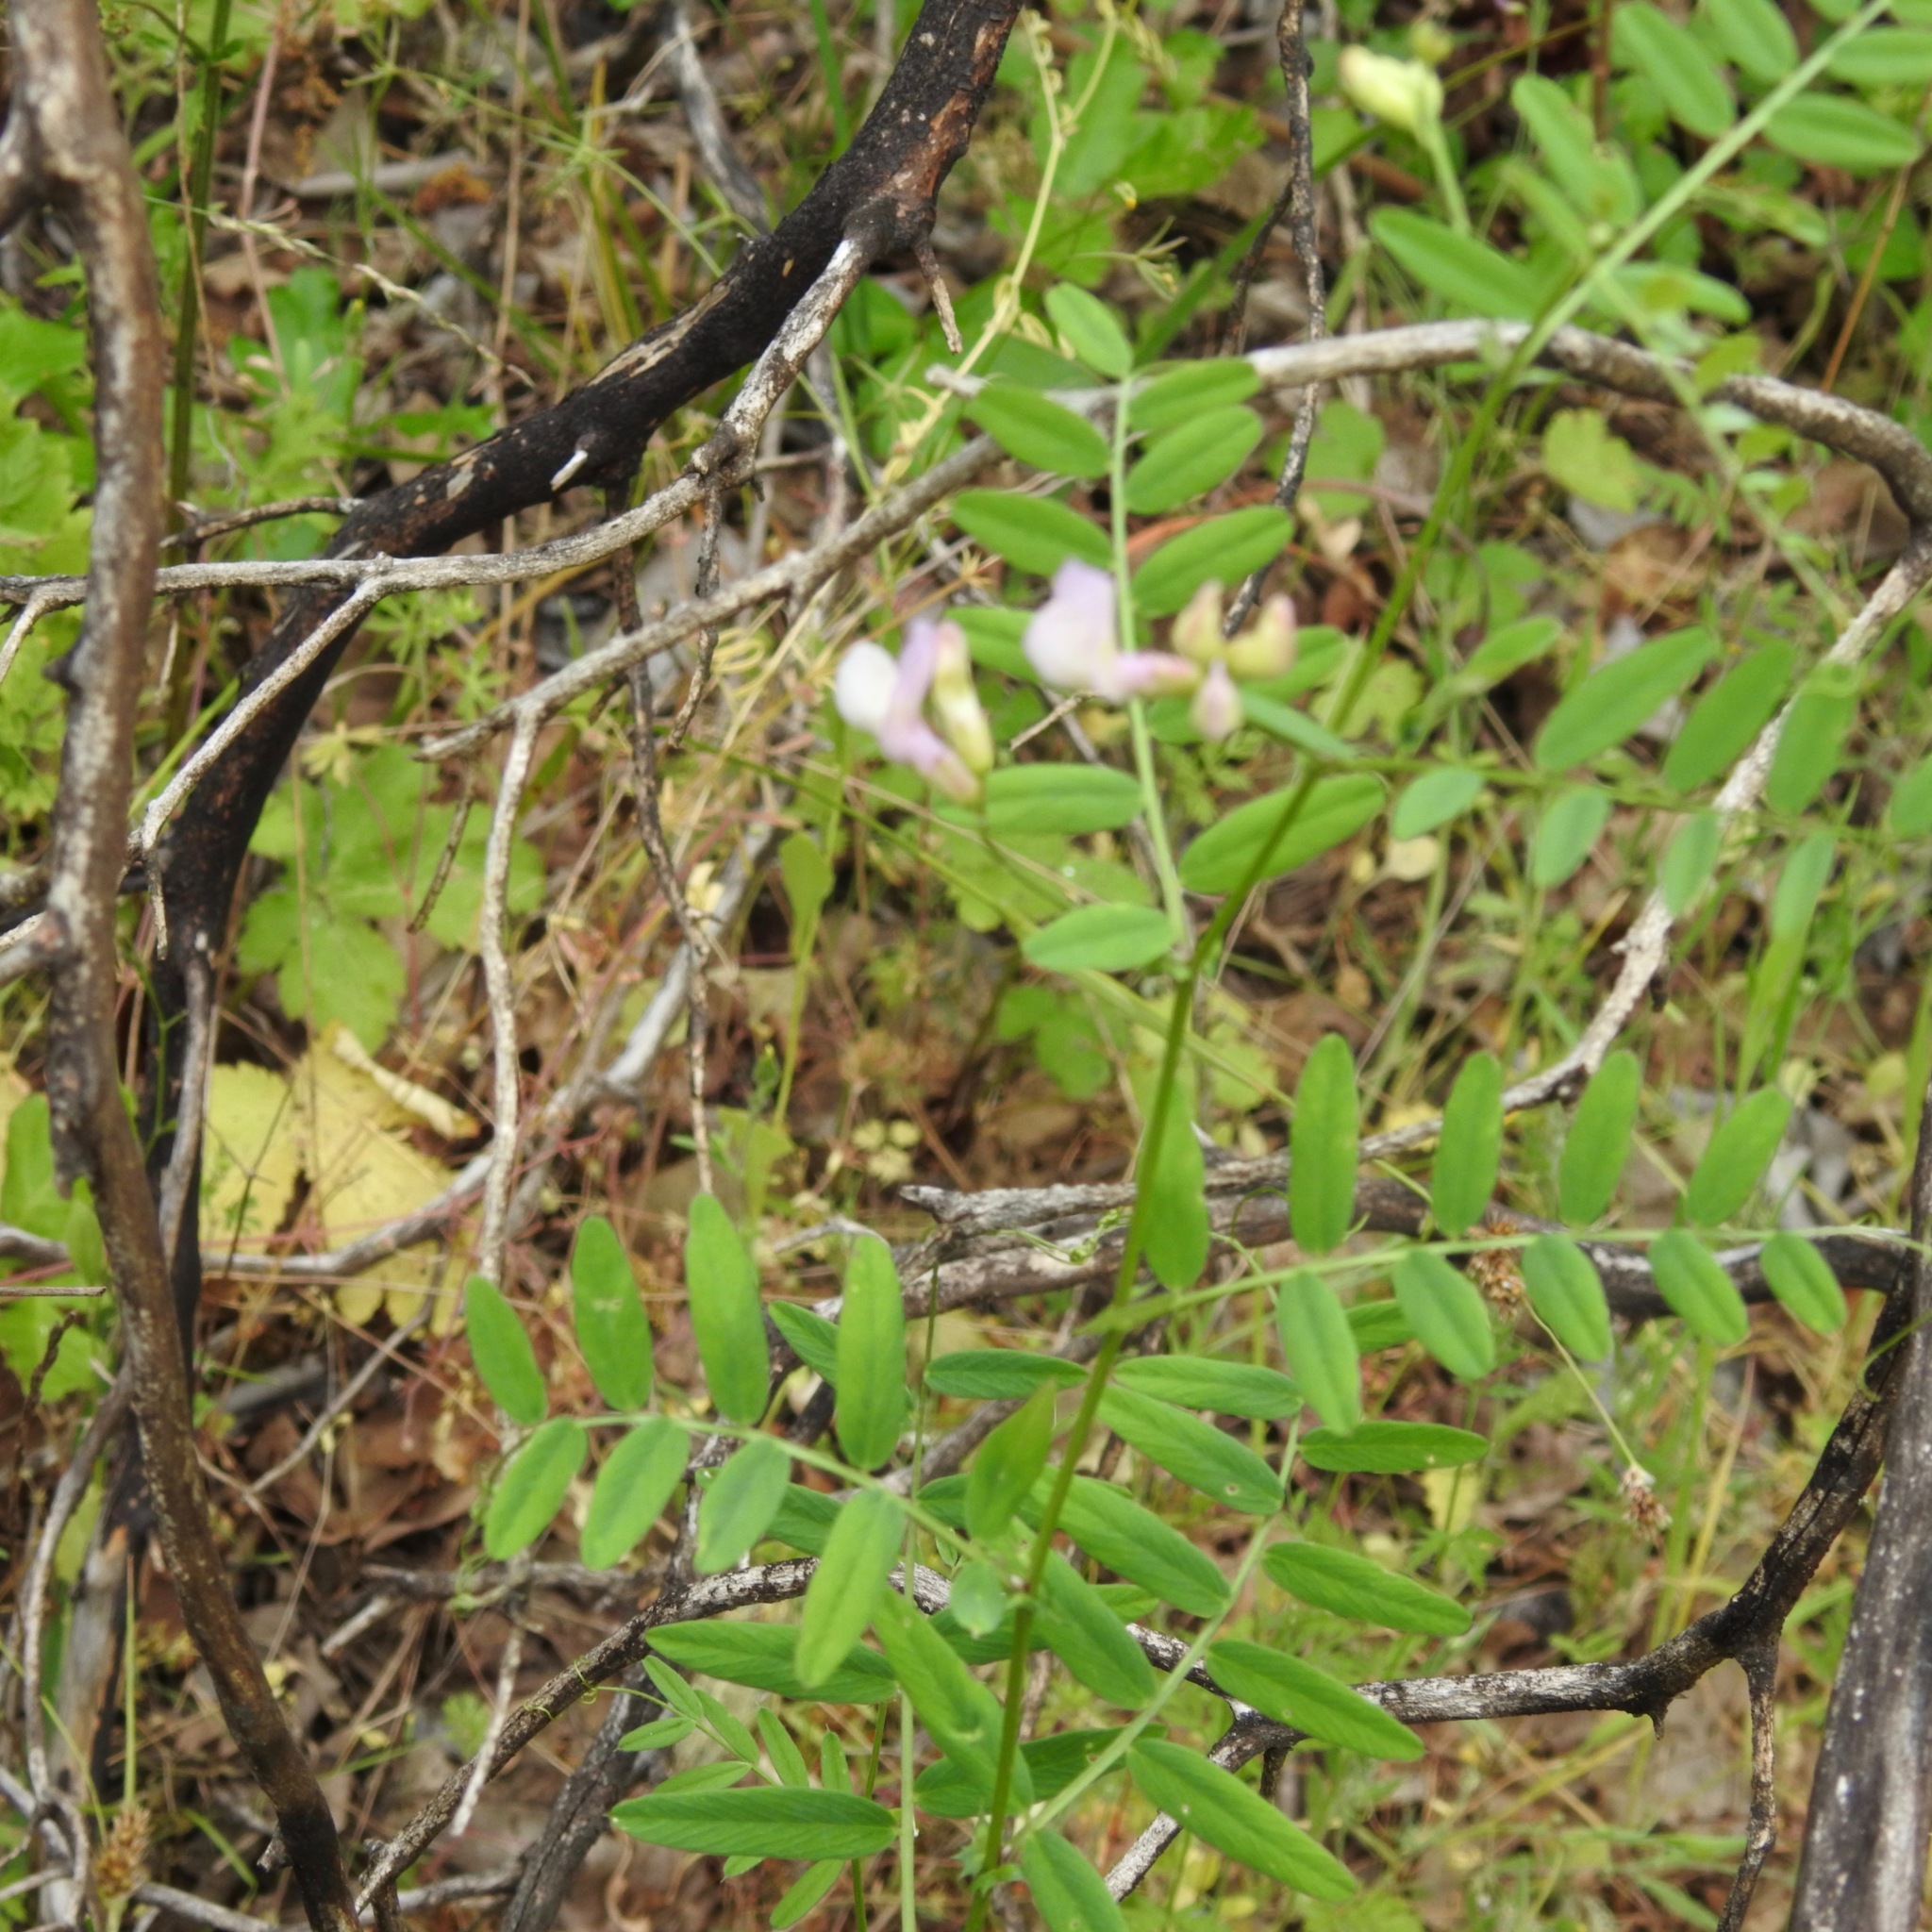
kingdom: Plantae
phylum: Tracheophyta
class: Magnoliopsida
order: Fabales
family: Fabaceae
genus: Lathyrus
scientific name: Lathyrus vestitus
